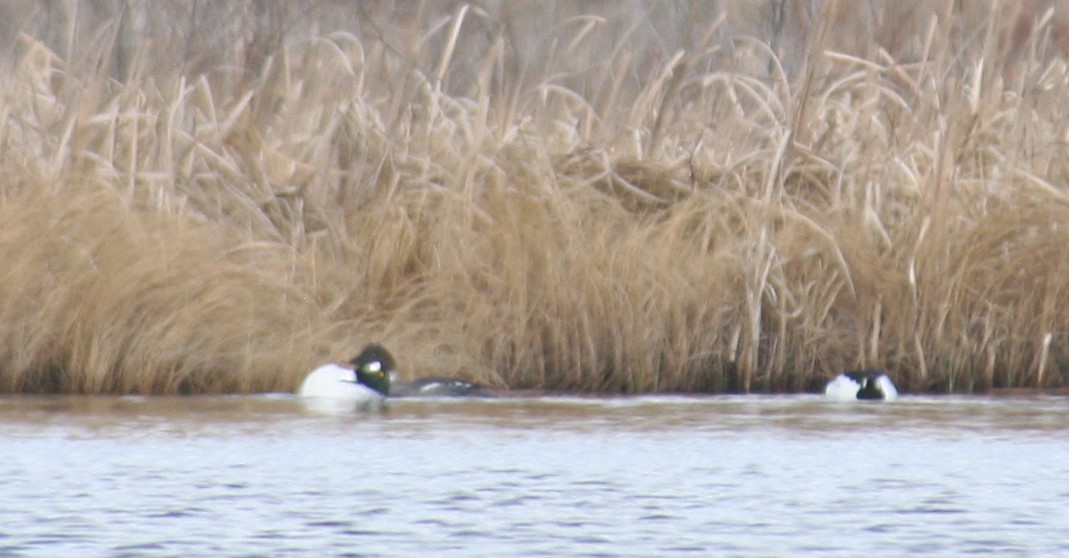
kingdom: Animalia
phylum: Chordata
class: Aves
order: Anseriformes
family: Anatidae
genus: Bucephala
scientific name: Bucephala clangula
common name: Common goldeneye
